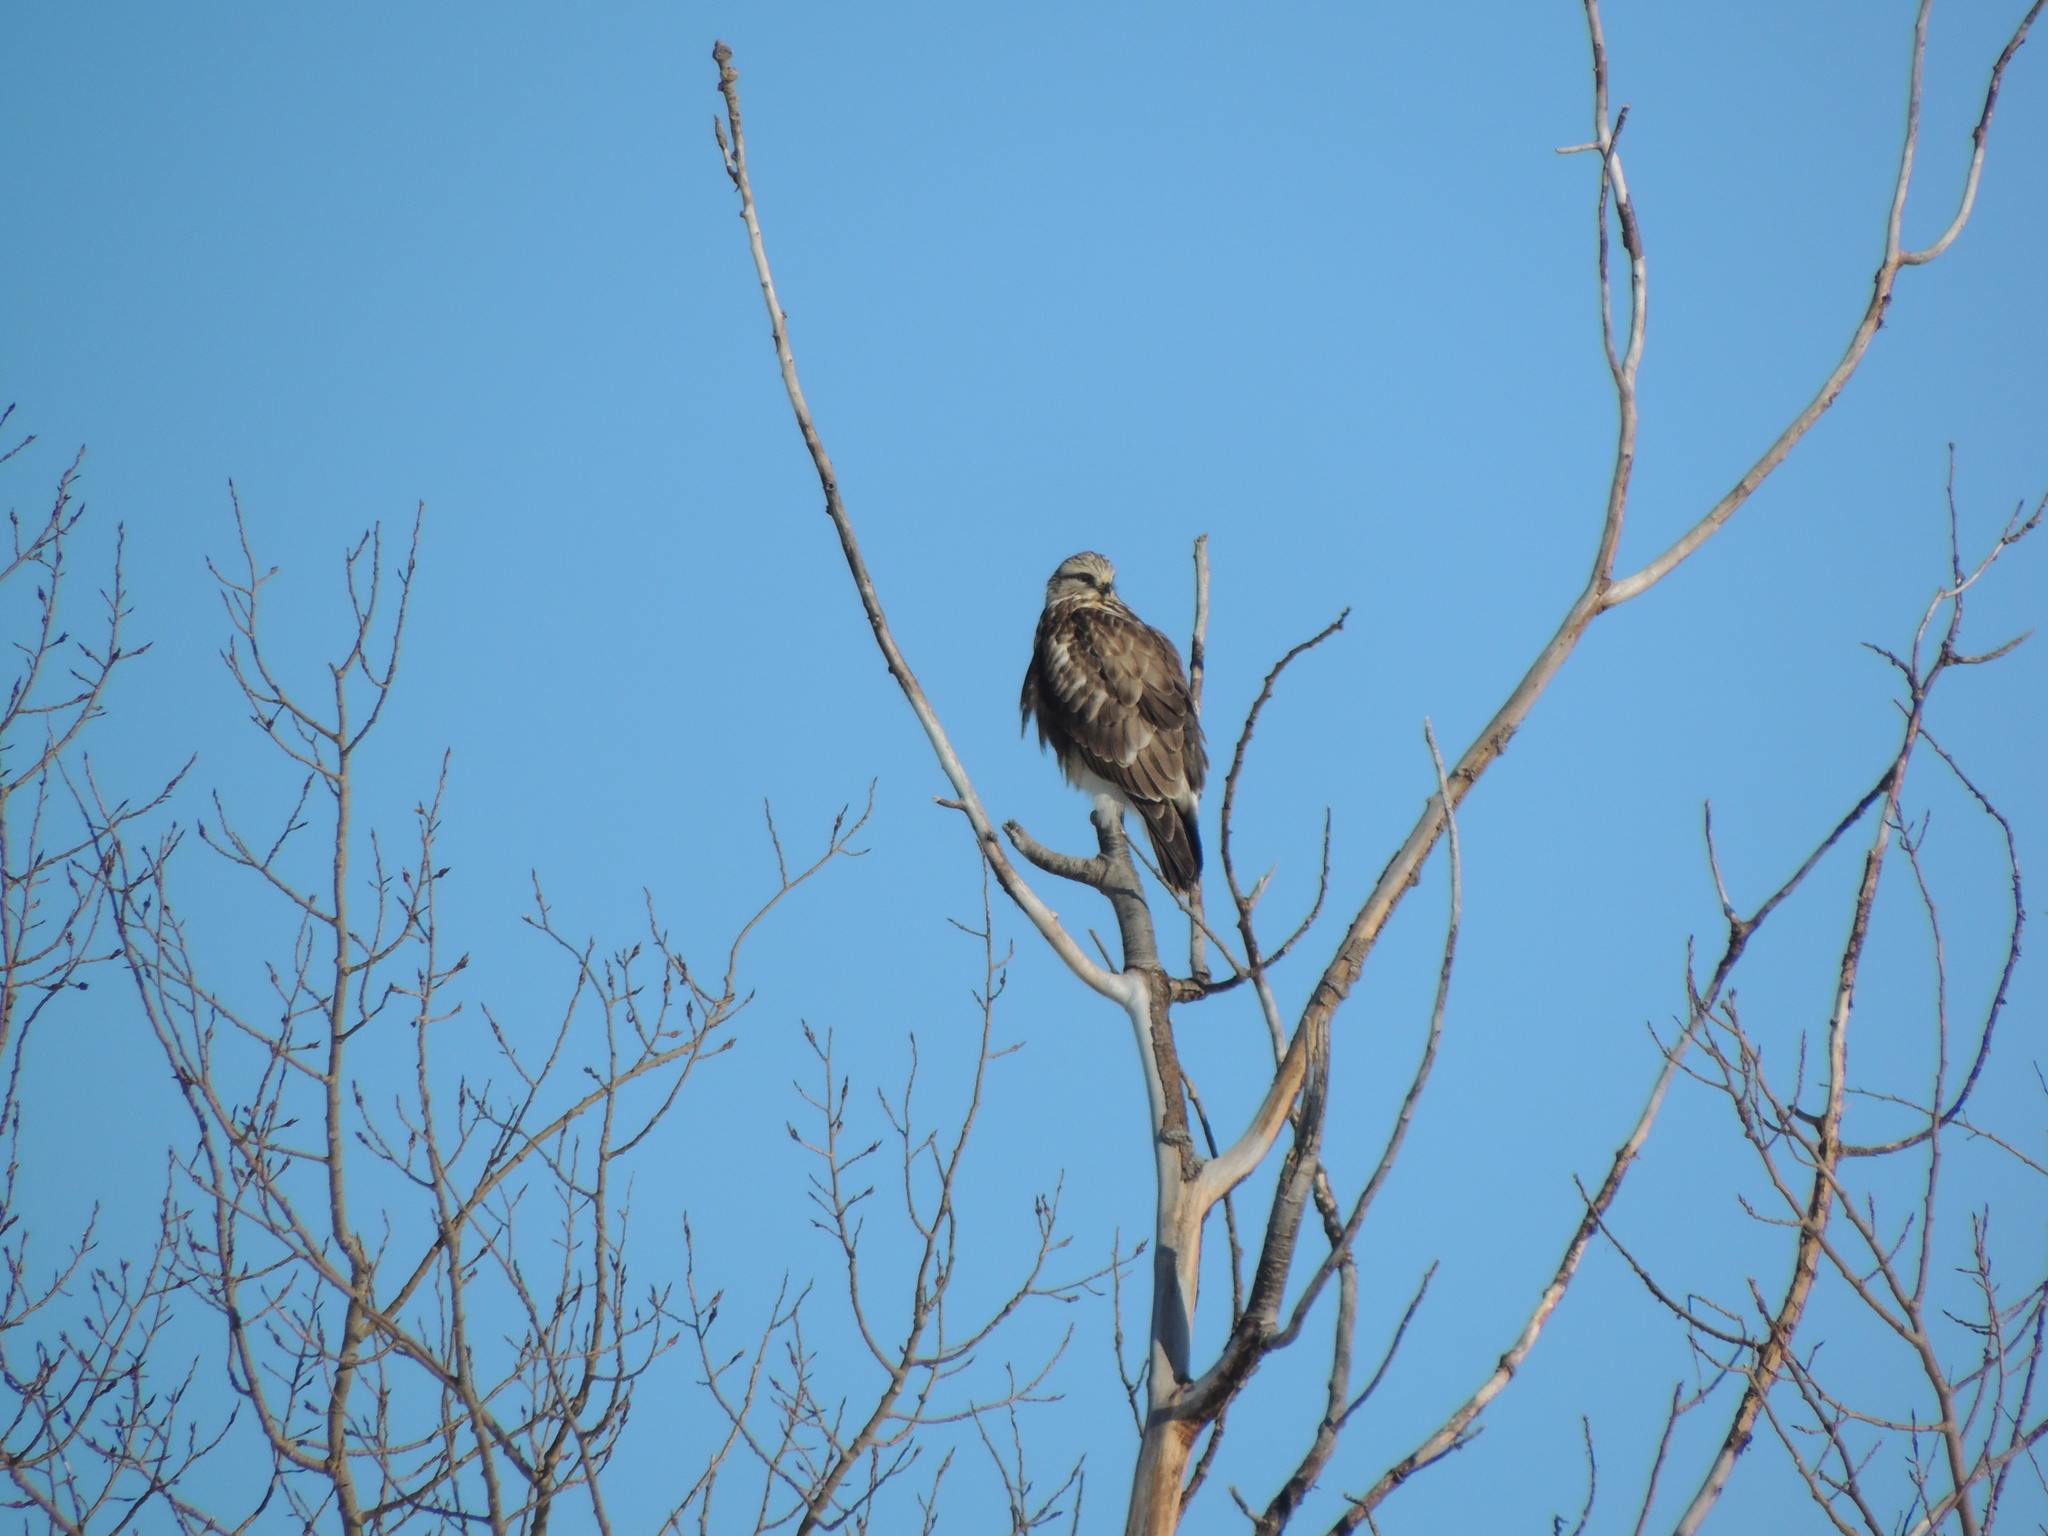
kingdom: Animalia
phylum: Chordata
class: Aves
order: Accipitriformes
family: Accipitridae
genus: Buteo
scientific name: Buteo lagopus
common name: Rough-legged buzzard
